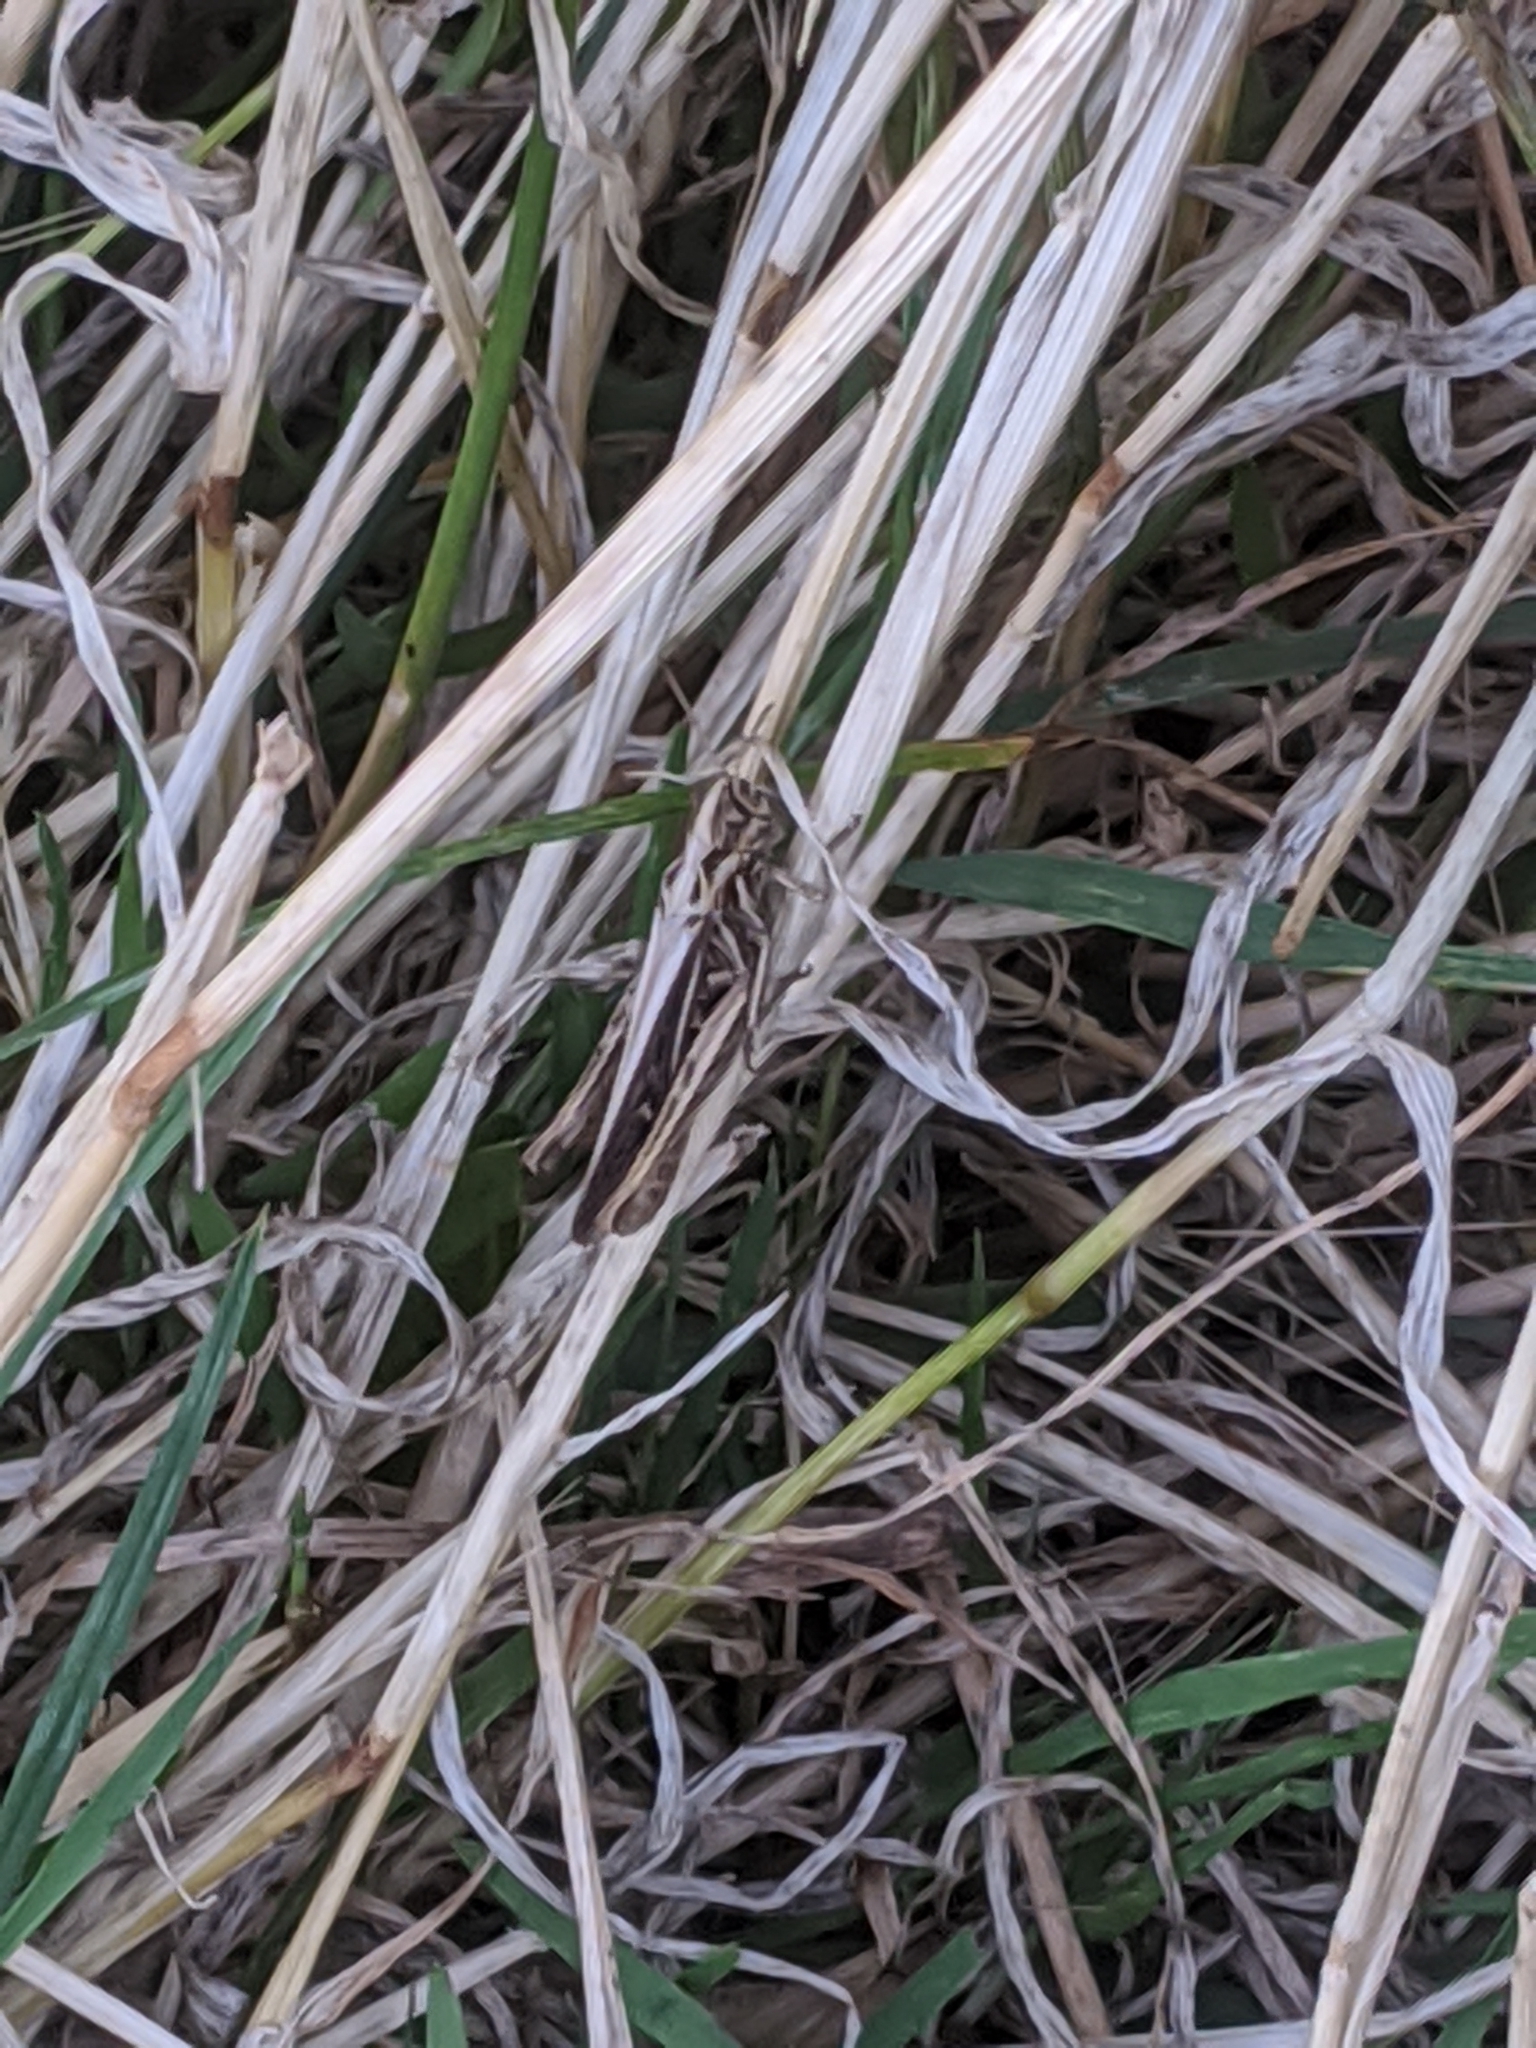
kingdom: Animalia
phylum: Arthropoda
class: Insecta
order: Orthoptera
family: Acrididae
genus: Chorthippus
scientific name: Chorthippus brunneus
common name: Field grasshopper
